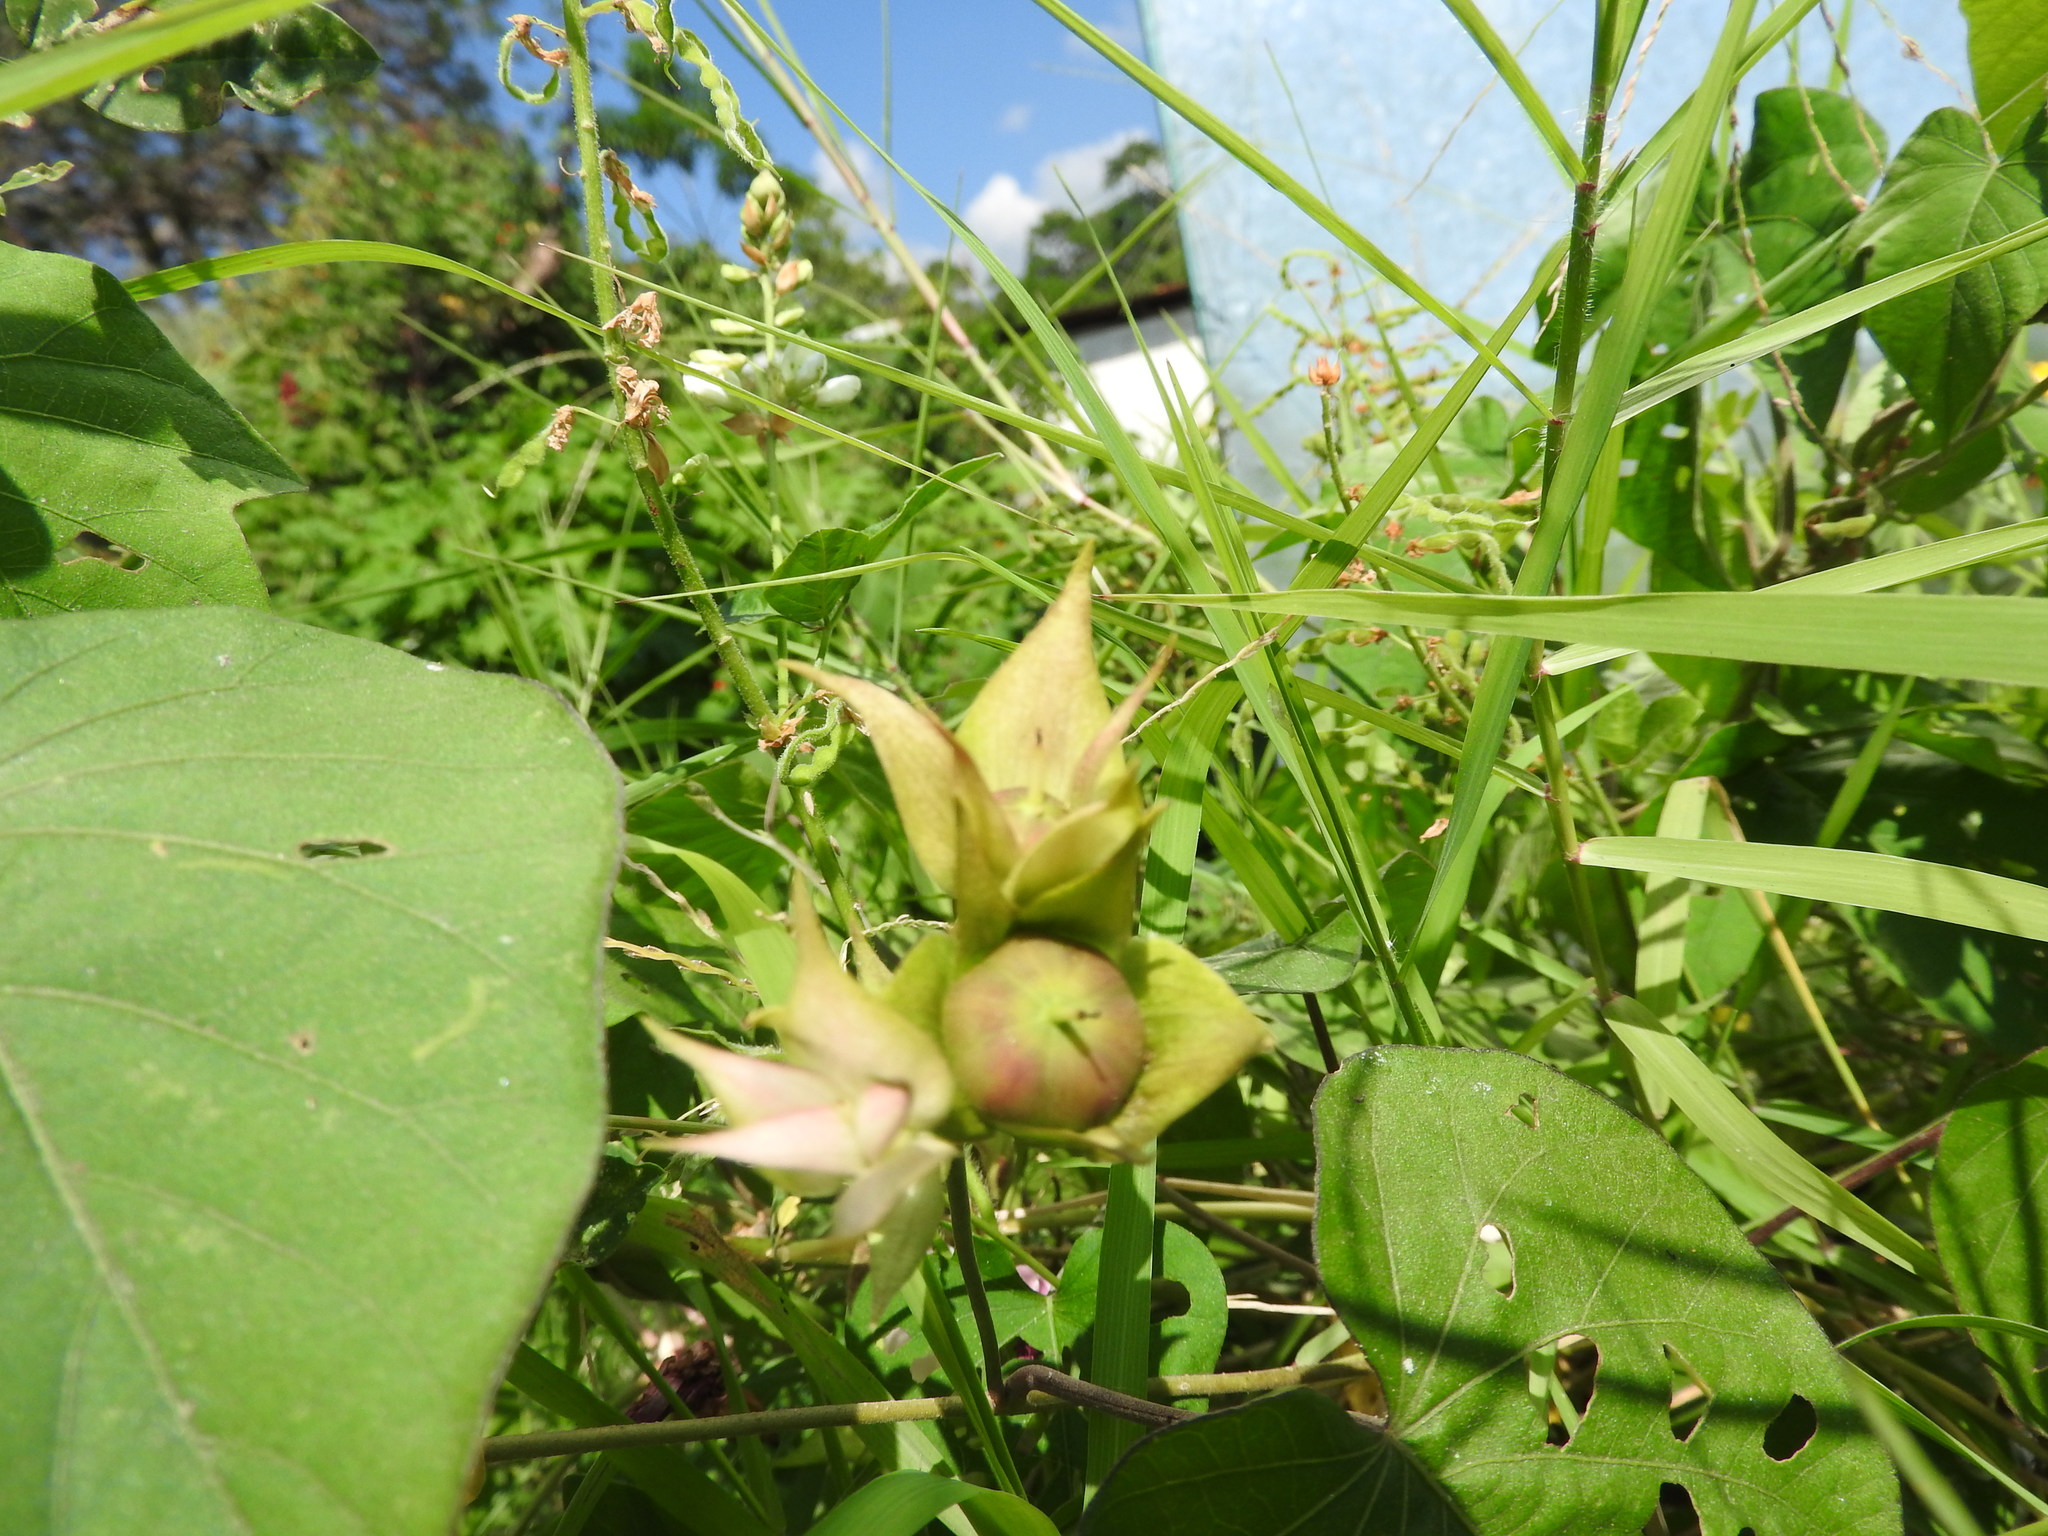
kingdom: Plantae
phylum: Tracheophyta
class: Magnoliopsida
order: Solanales
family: Convolvulaceae
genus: Ipomoea
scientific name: Ipomoea indica
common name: Blue dawnflower
